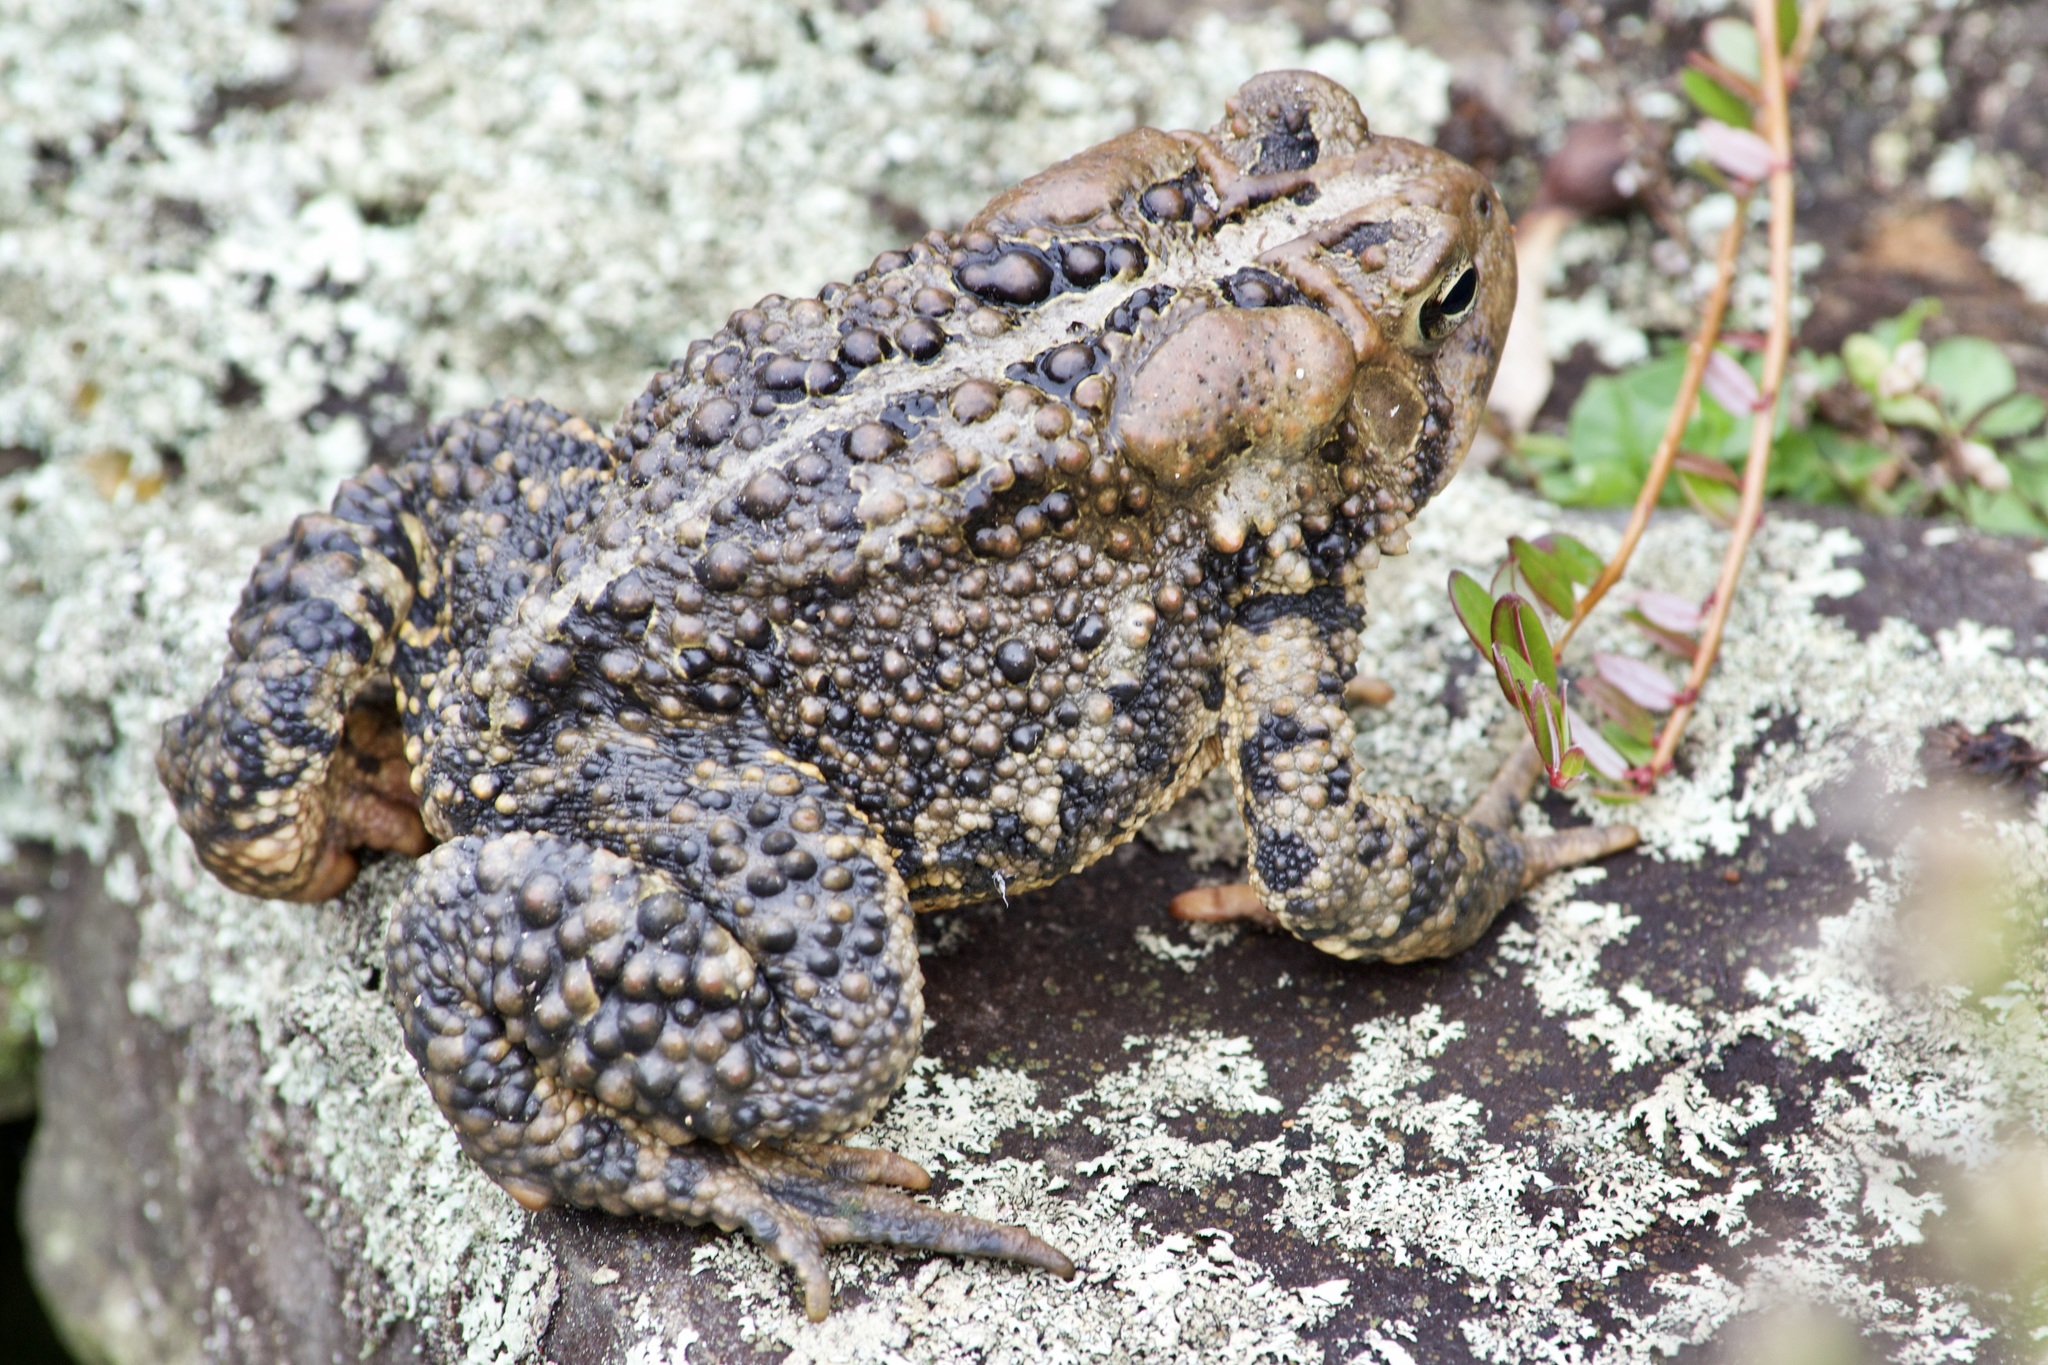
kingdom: Animalia
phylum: Chordata
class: Amphibia
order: Anura
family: Bufonidae
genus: Anaxyrus
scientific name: Anaxyrus americanus
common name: American toad
